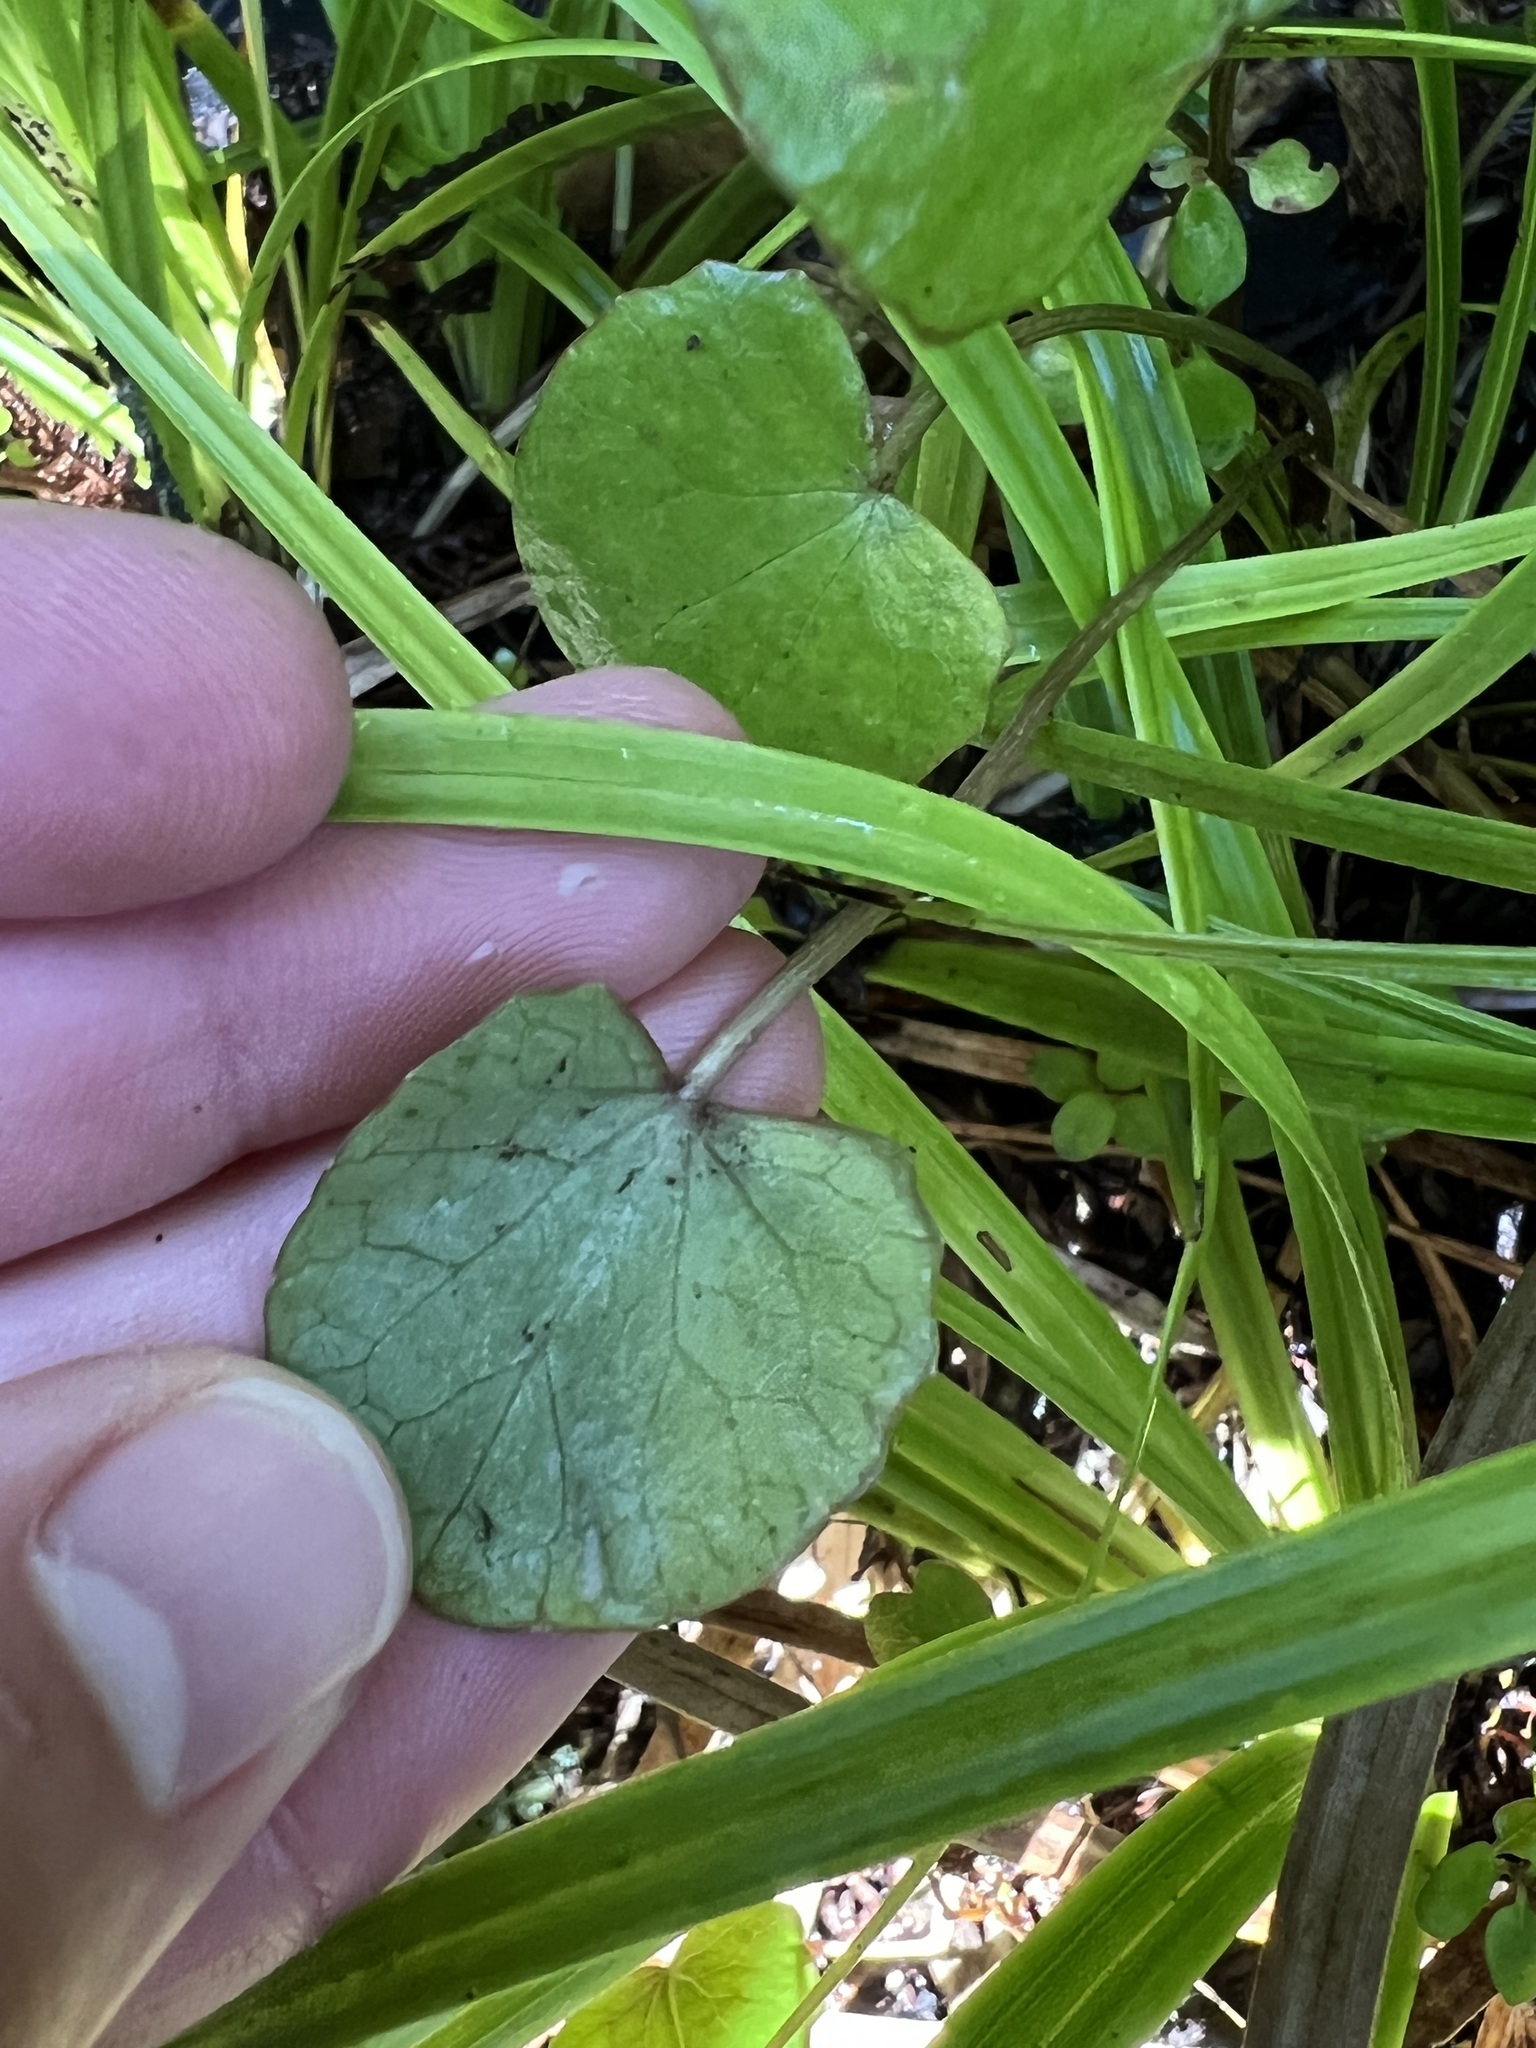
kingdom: Plantae
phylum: Tracheophyta
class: Magnoliopsida
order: Apiales
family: Apiaceae
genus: Centella
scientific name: Centella uniflora
